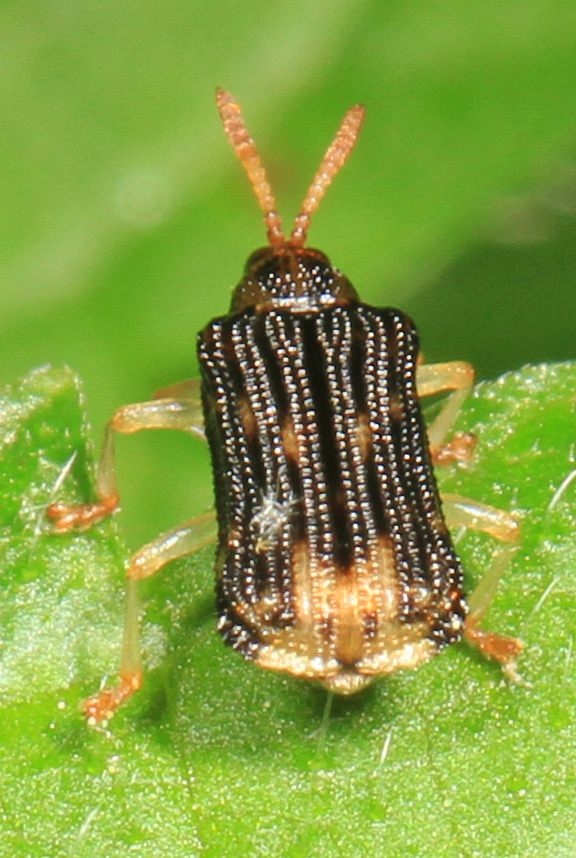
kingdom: Animalia
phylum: Arthropoda
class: Insecta
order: Coleoptera
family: Chrysomelidae
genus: Sumitrosis
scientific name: Sumitrosis rosea
